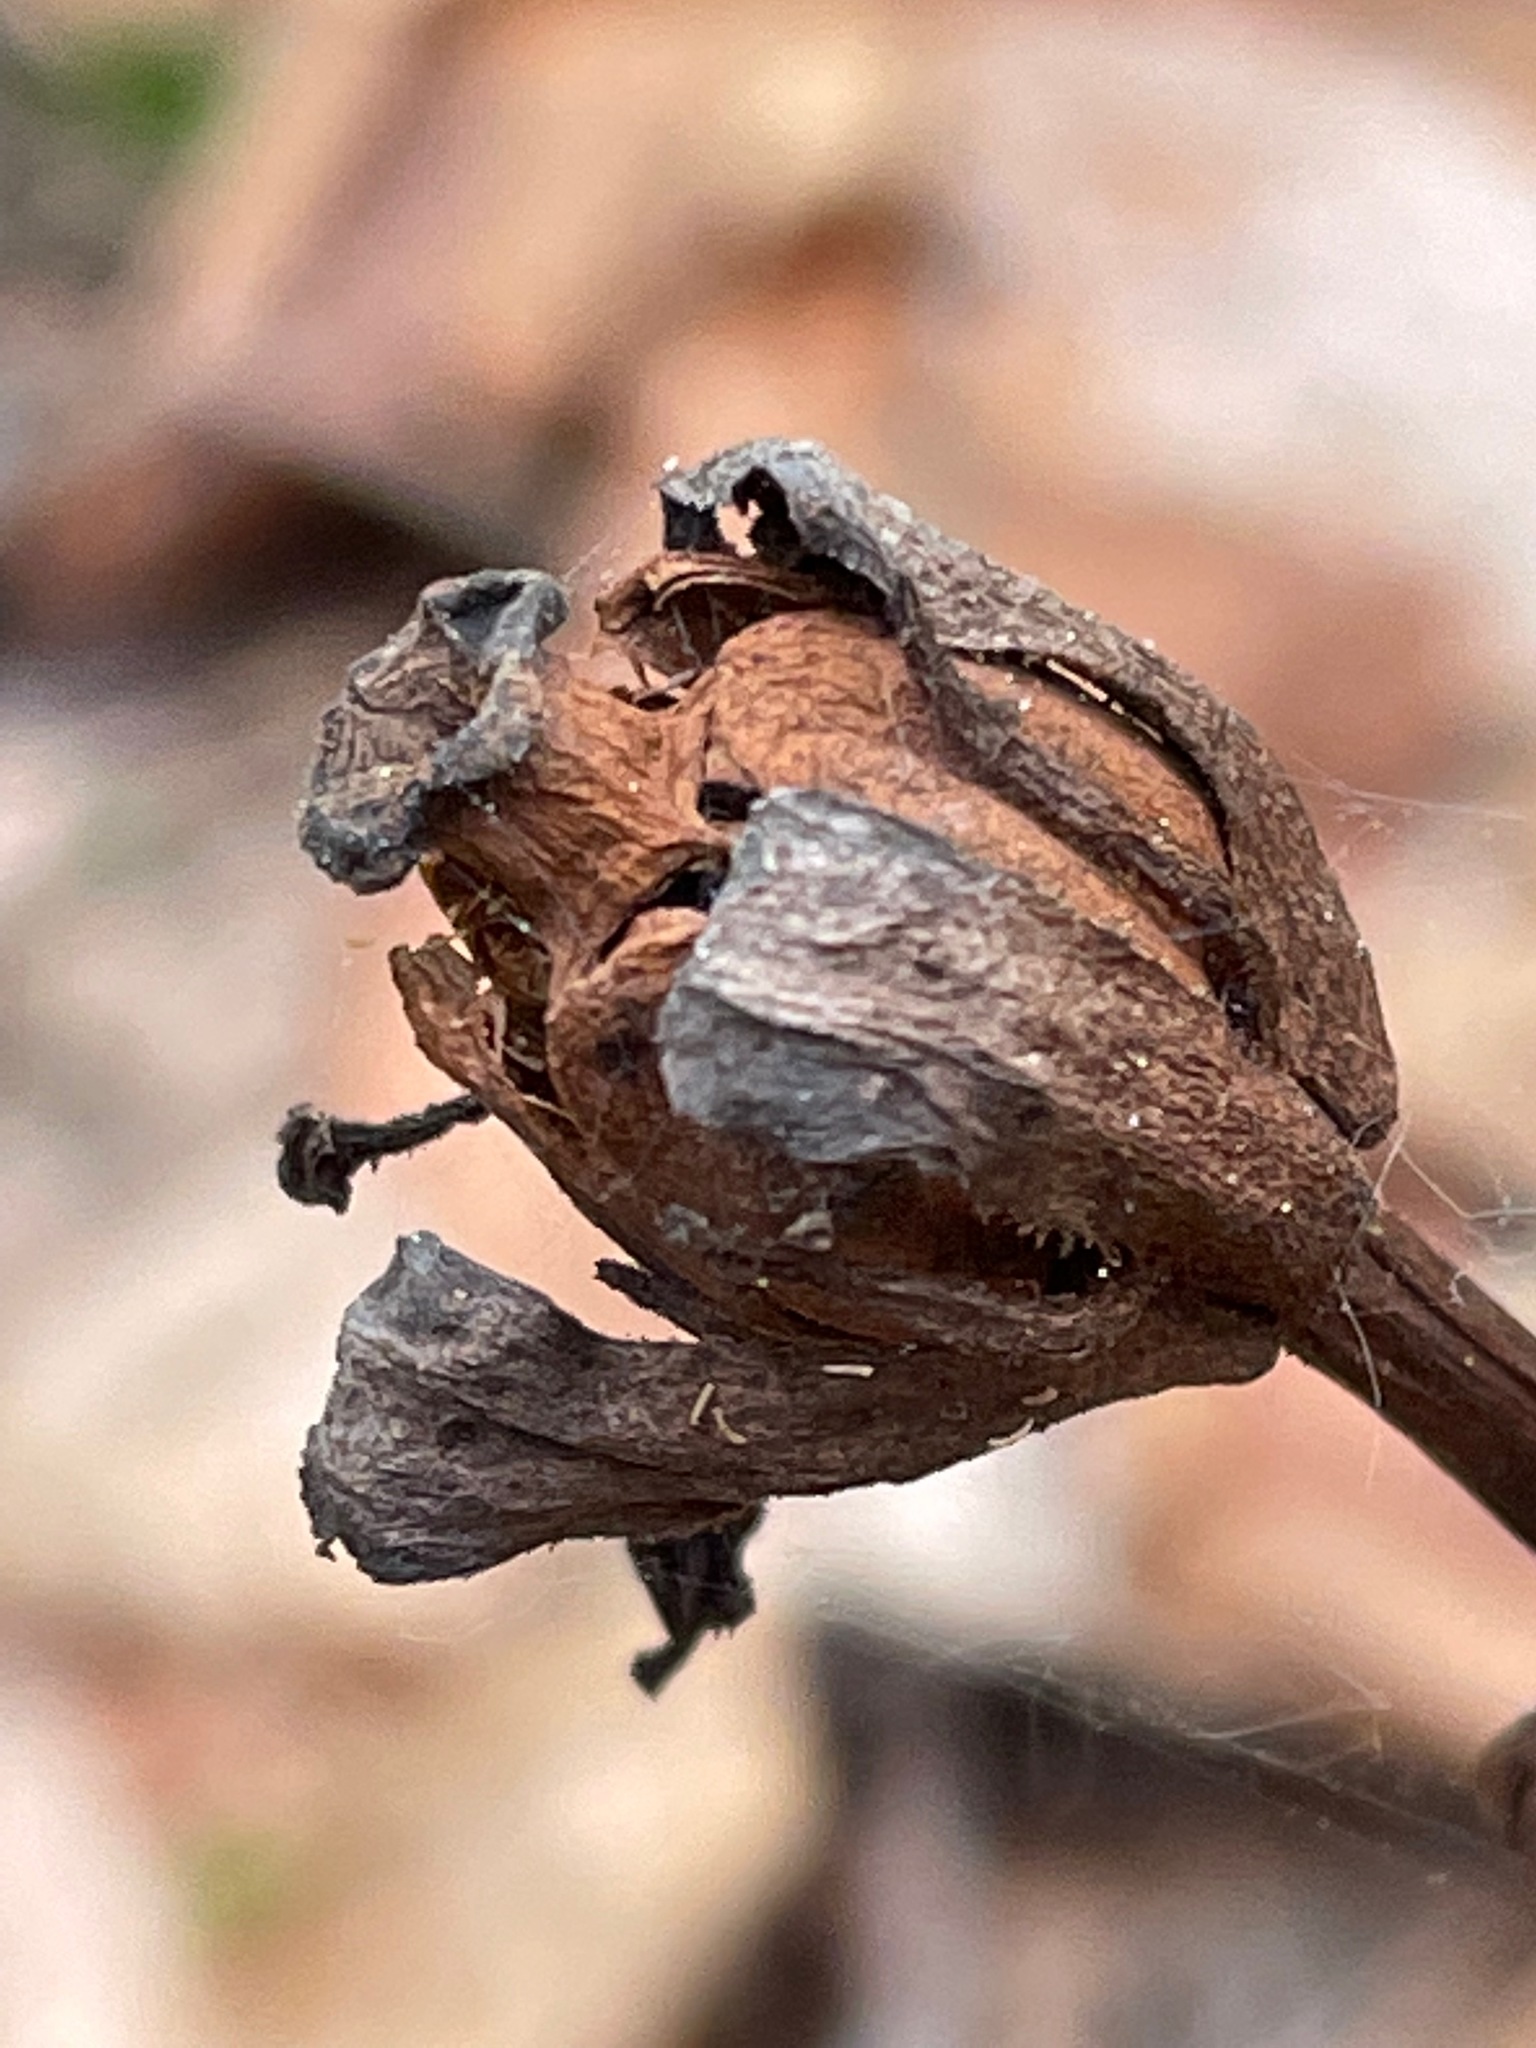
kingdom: Plantae
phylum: Tracheophyta
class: Magnoliopsida
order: Ericales
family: Ericaceae
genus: Monotropa
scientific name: Monotropa uniflora
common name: Convulsion root
